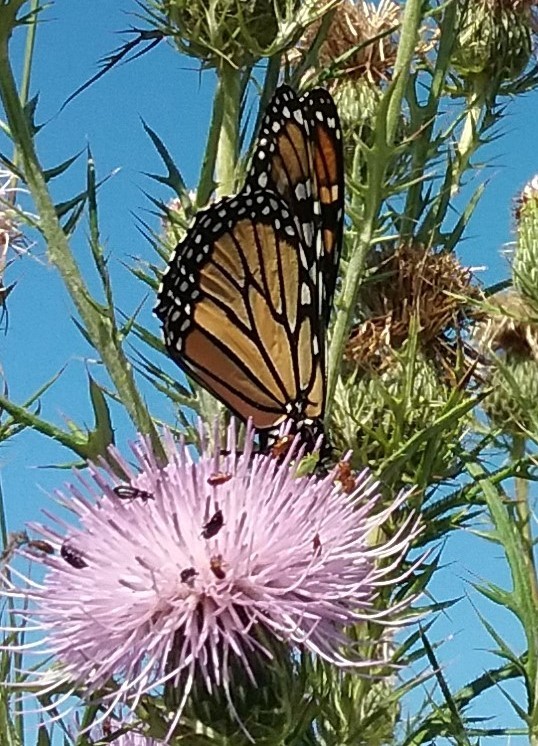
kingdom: Animalia
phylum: Arthropoda
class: Insecta
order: Lepidoptera
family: Nymphalidae
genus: Danaus
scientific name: Danaus plexippus
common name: Monarch
